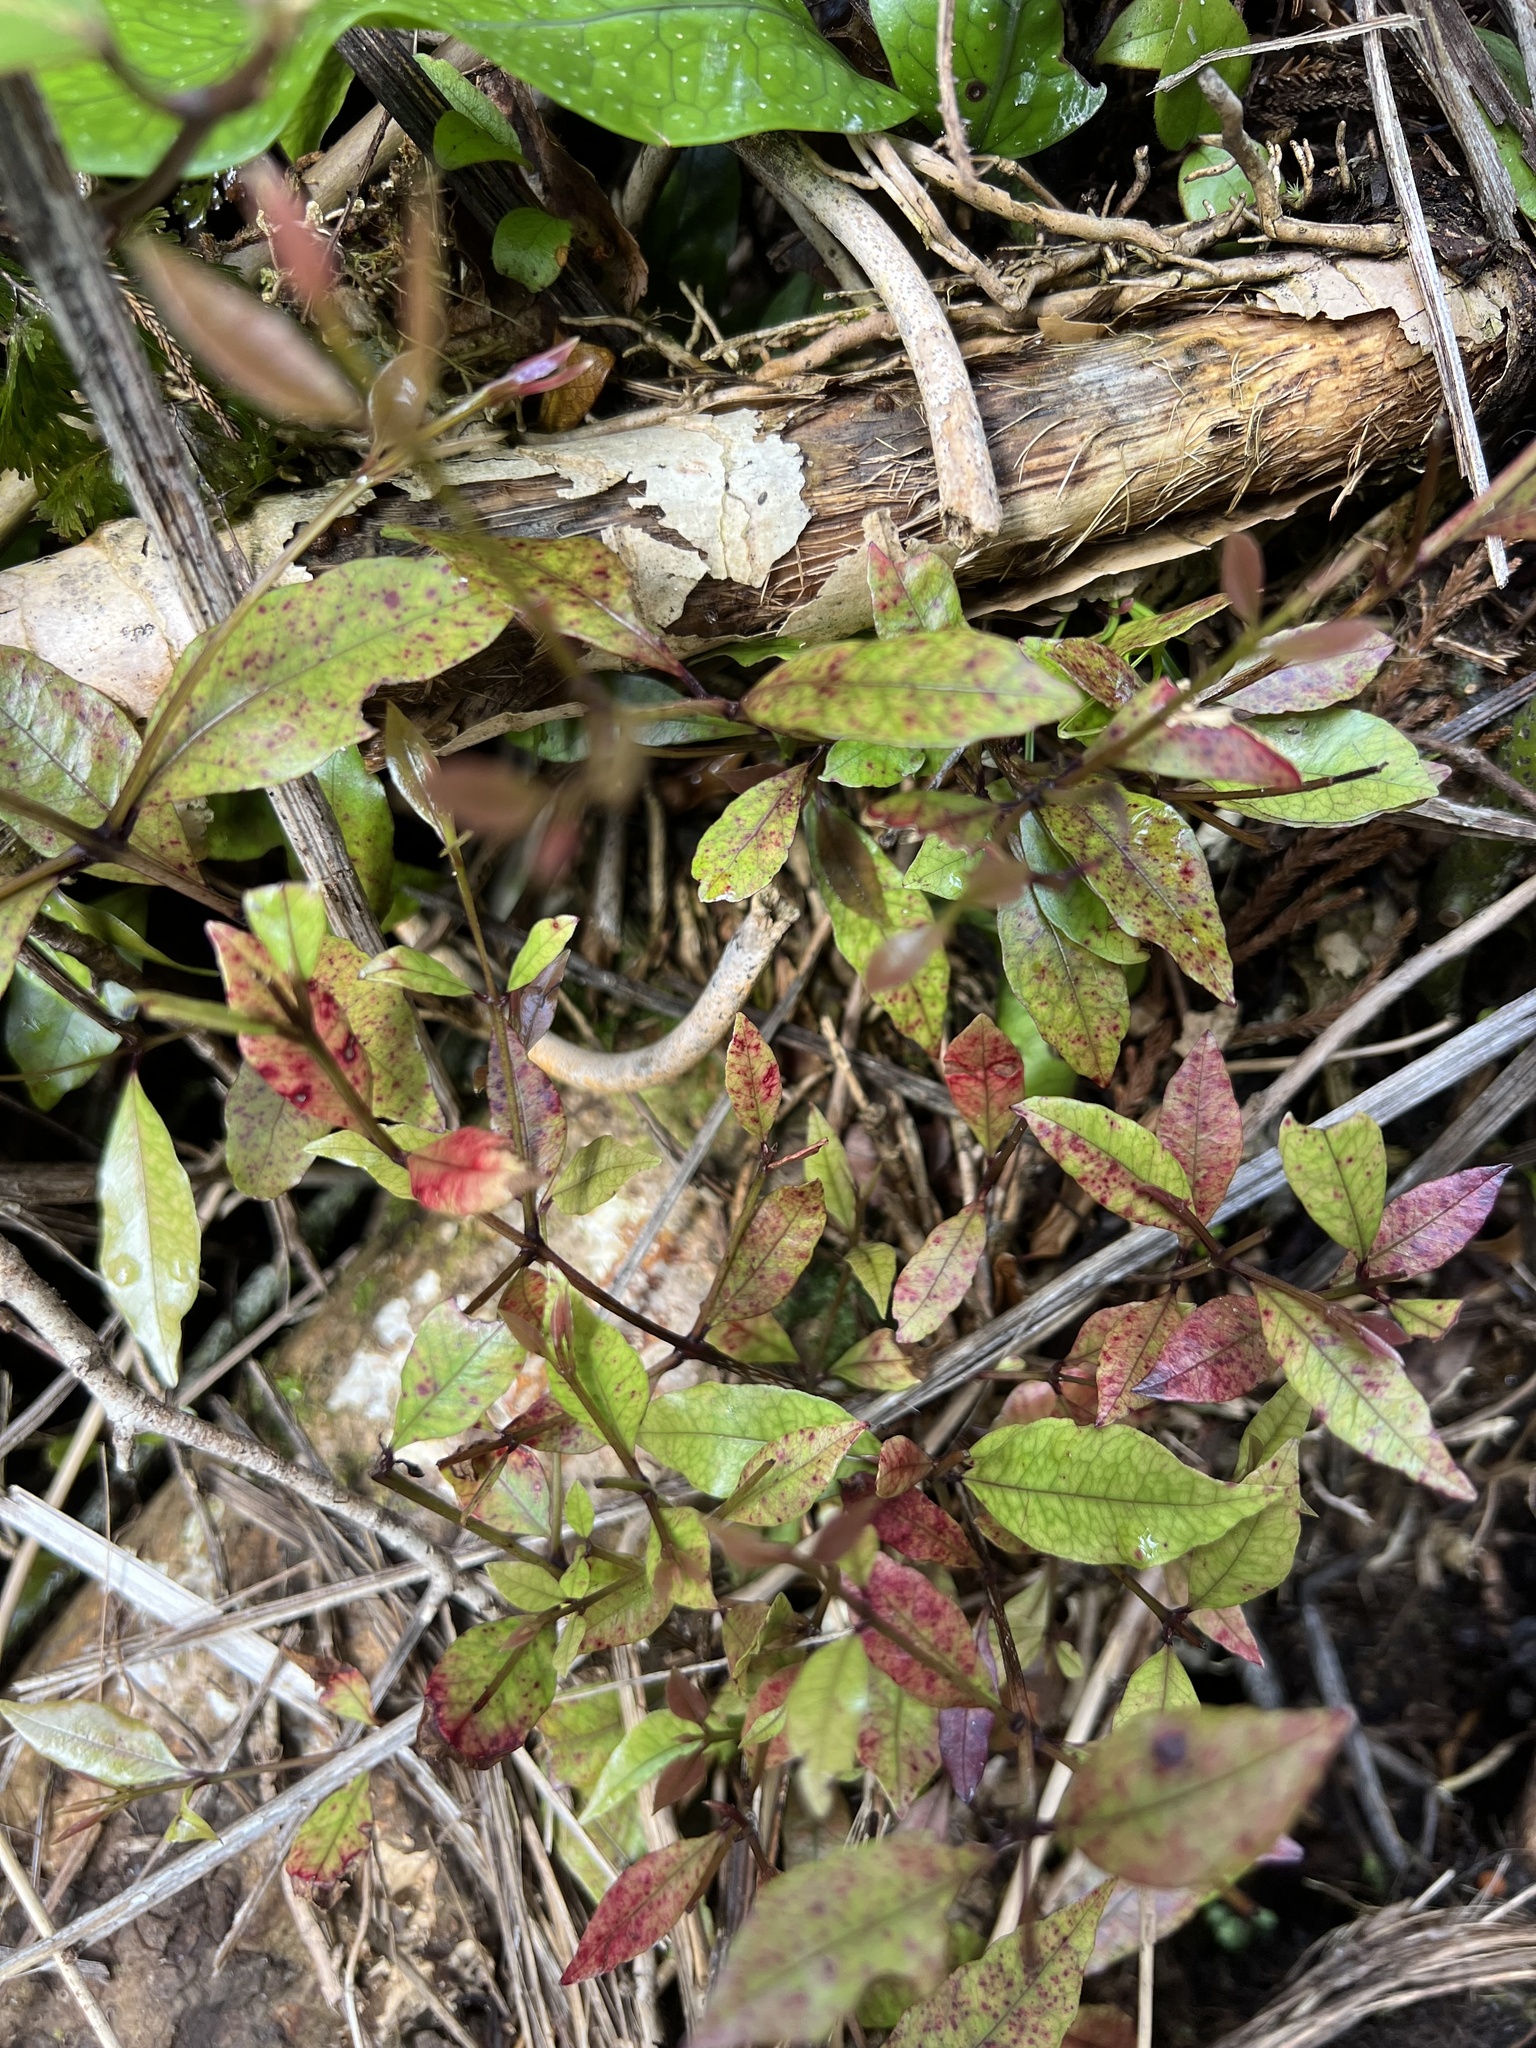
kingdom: Plantae
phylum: Tracheophyta
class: Magnoliopsida
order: Myrtales
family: Myrtaceae
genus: Syzygium
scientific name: Syzygium maire
